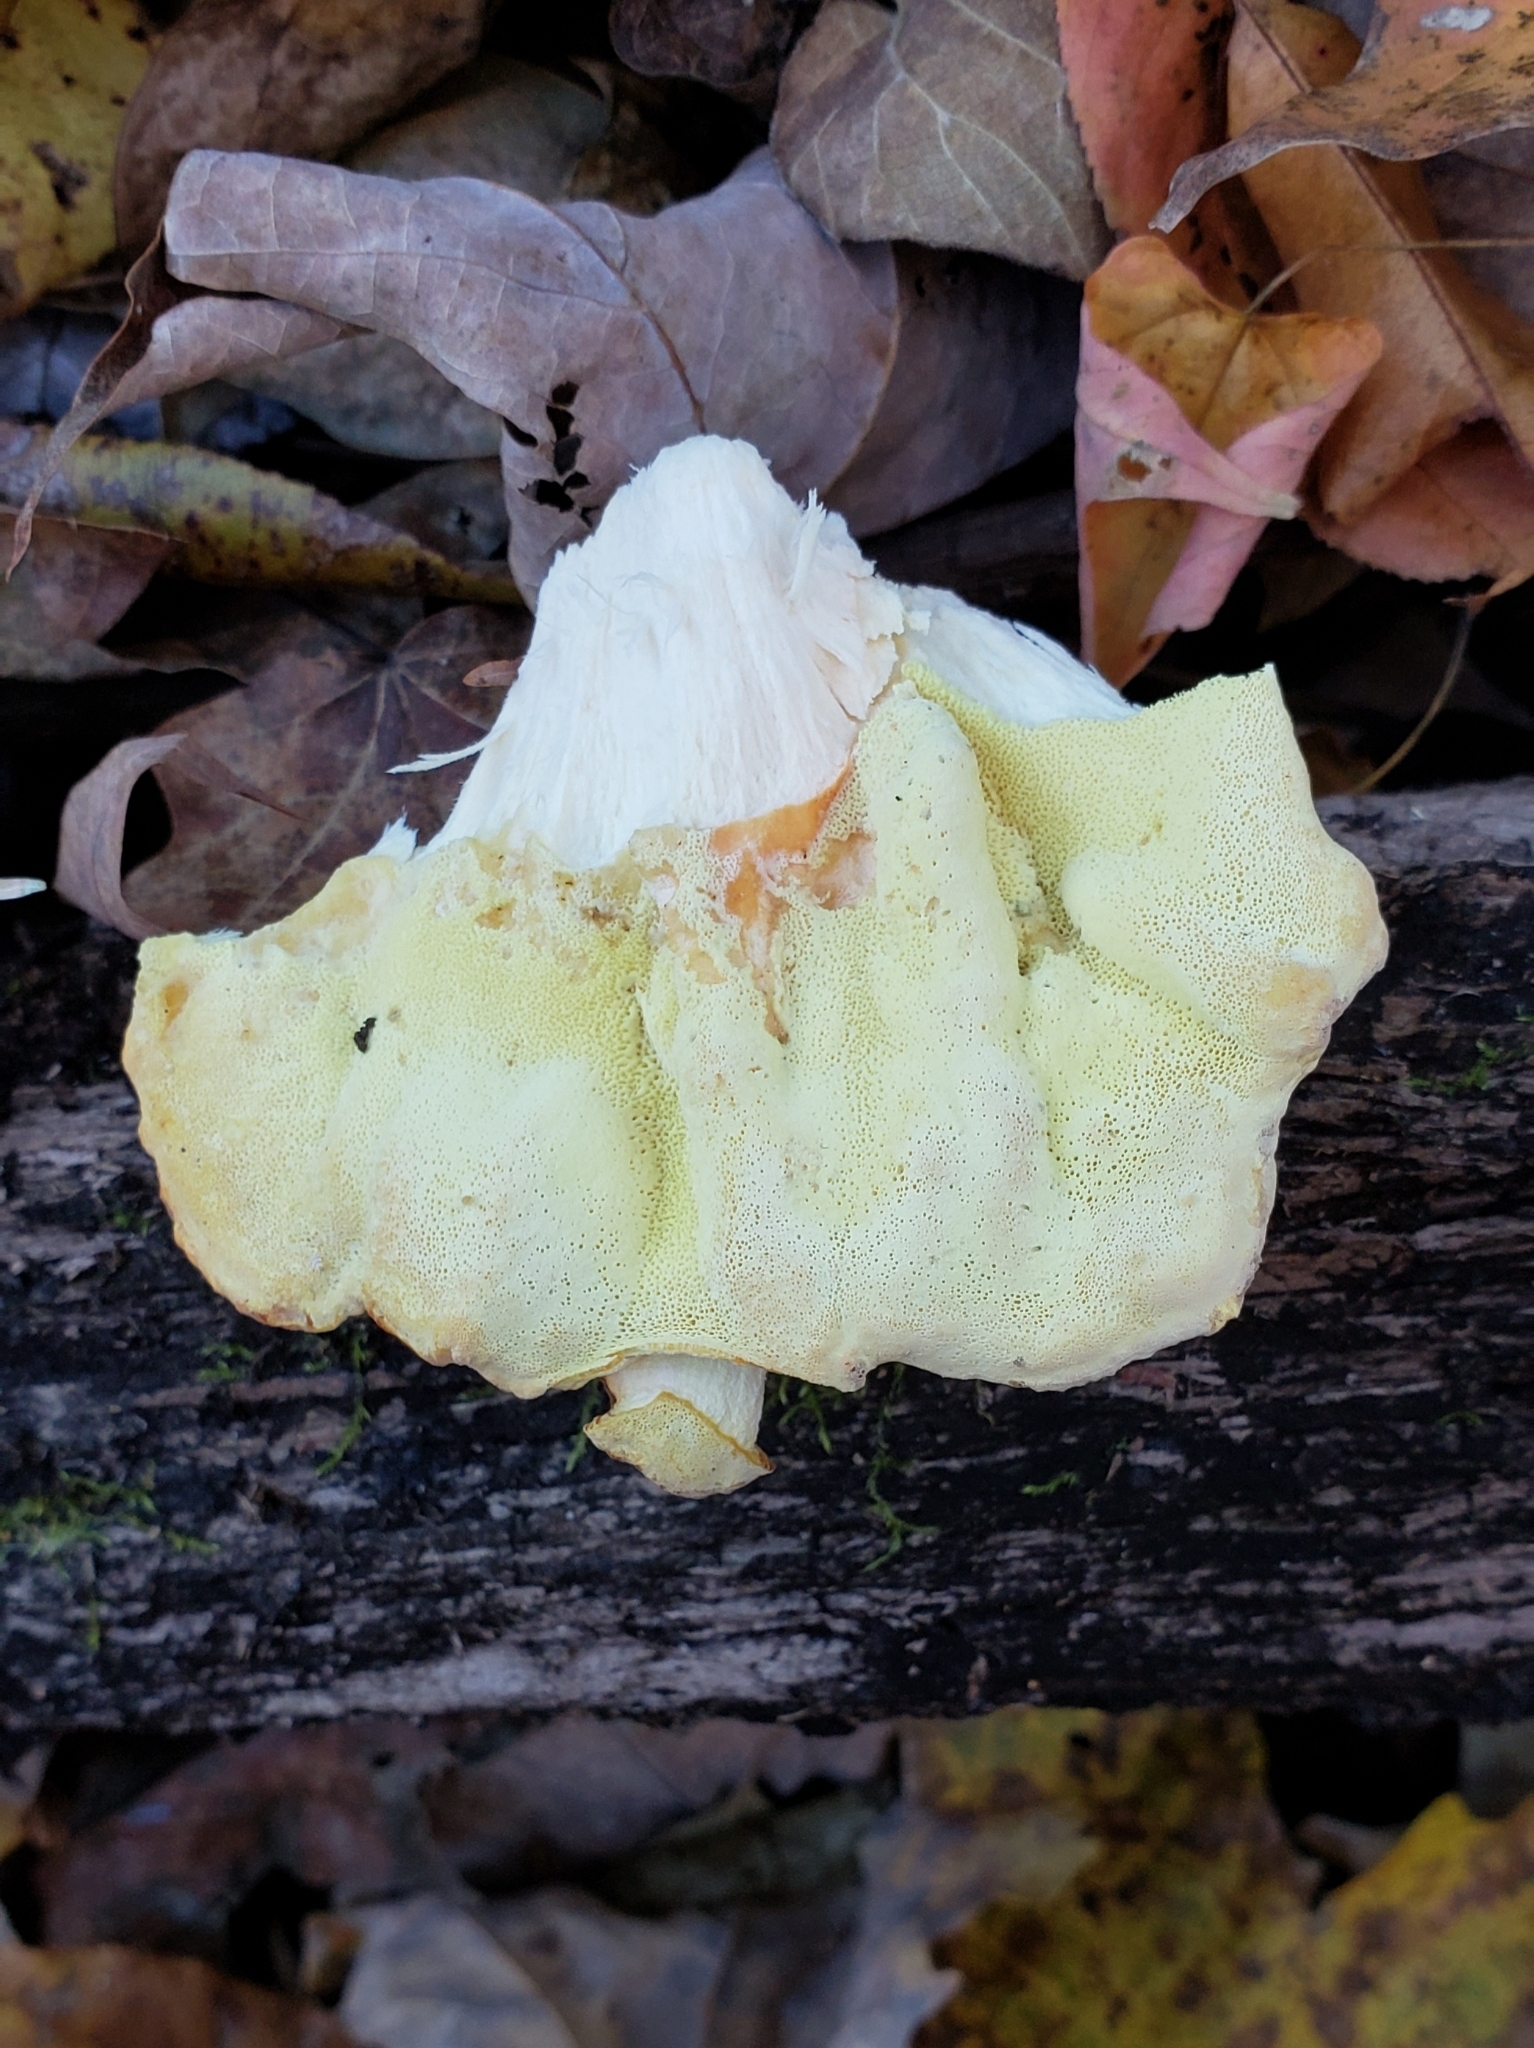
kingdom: Fungi
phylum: Basidiomycota
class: Agaricomycetes
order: Polyporales
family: Laetiporaceae
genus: Laetiporus
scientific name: Laetiporus sulphureus
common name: Chicken of the woods
